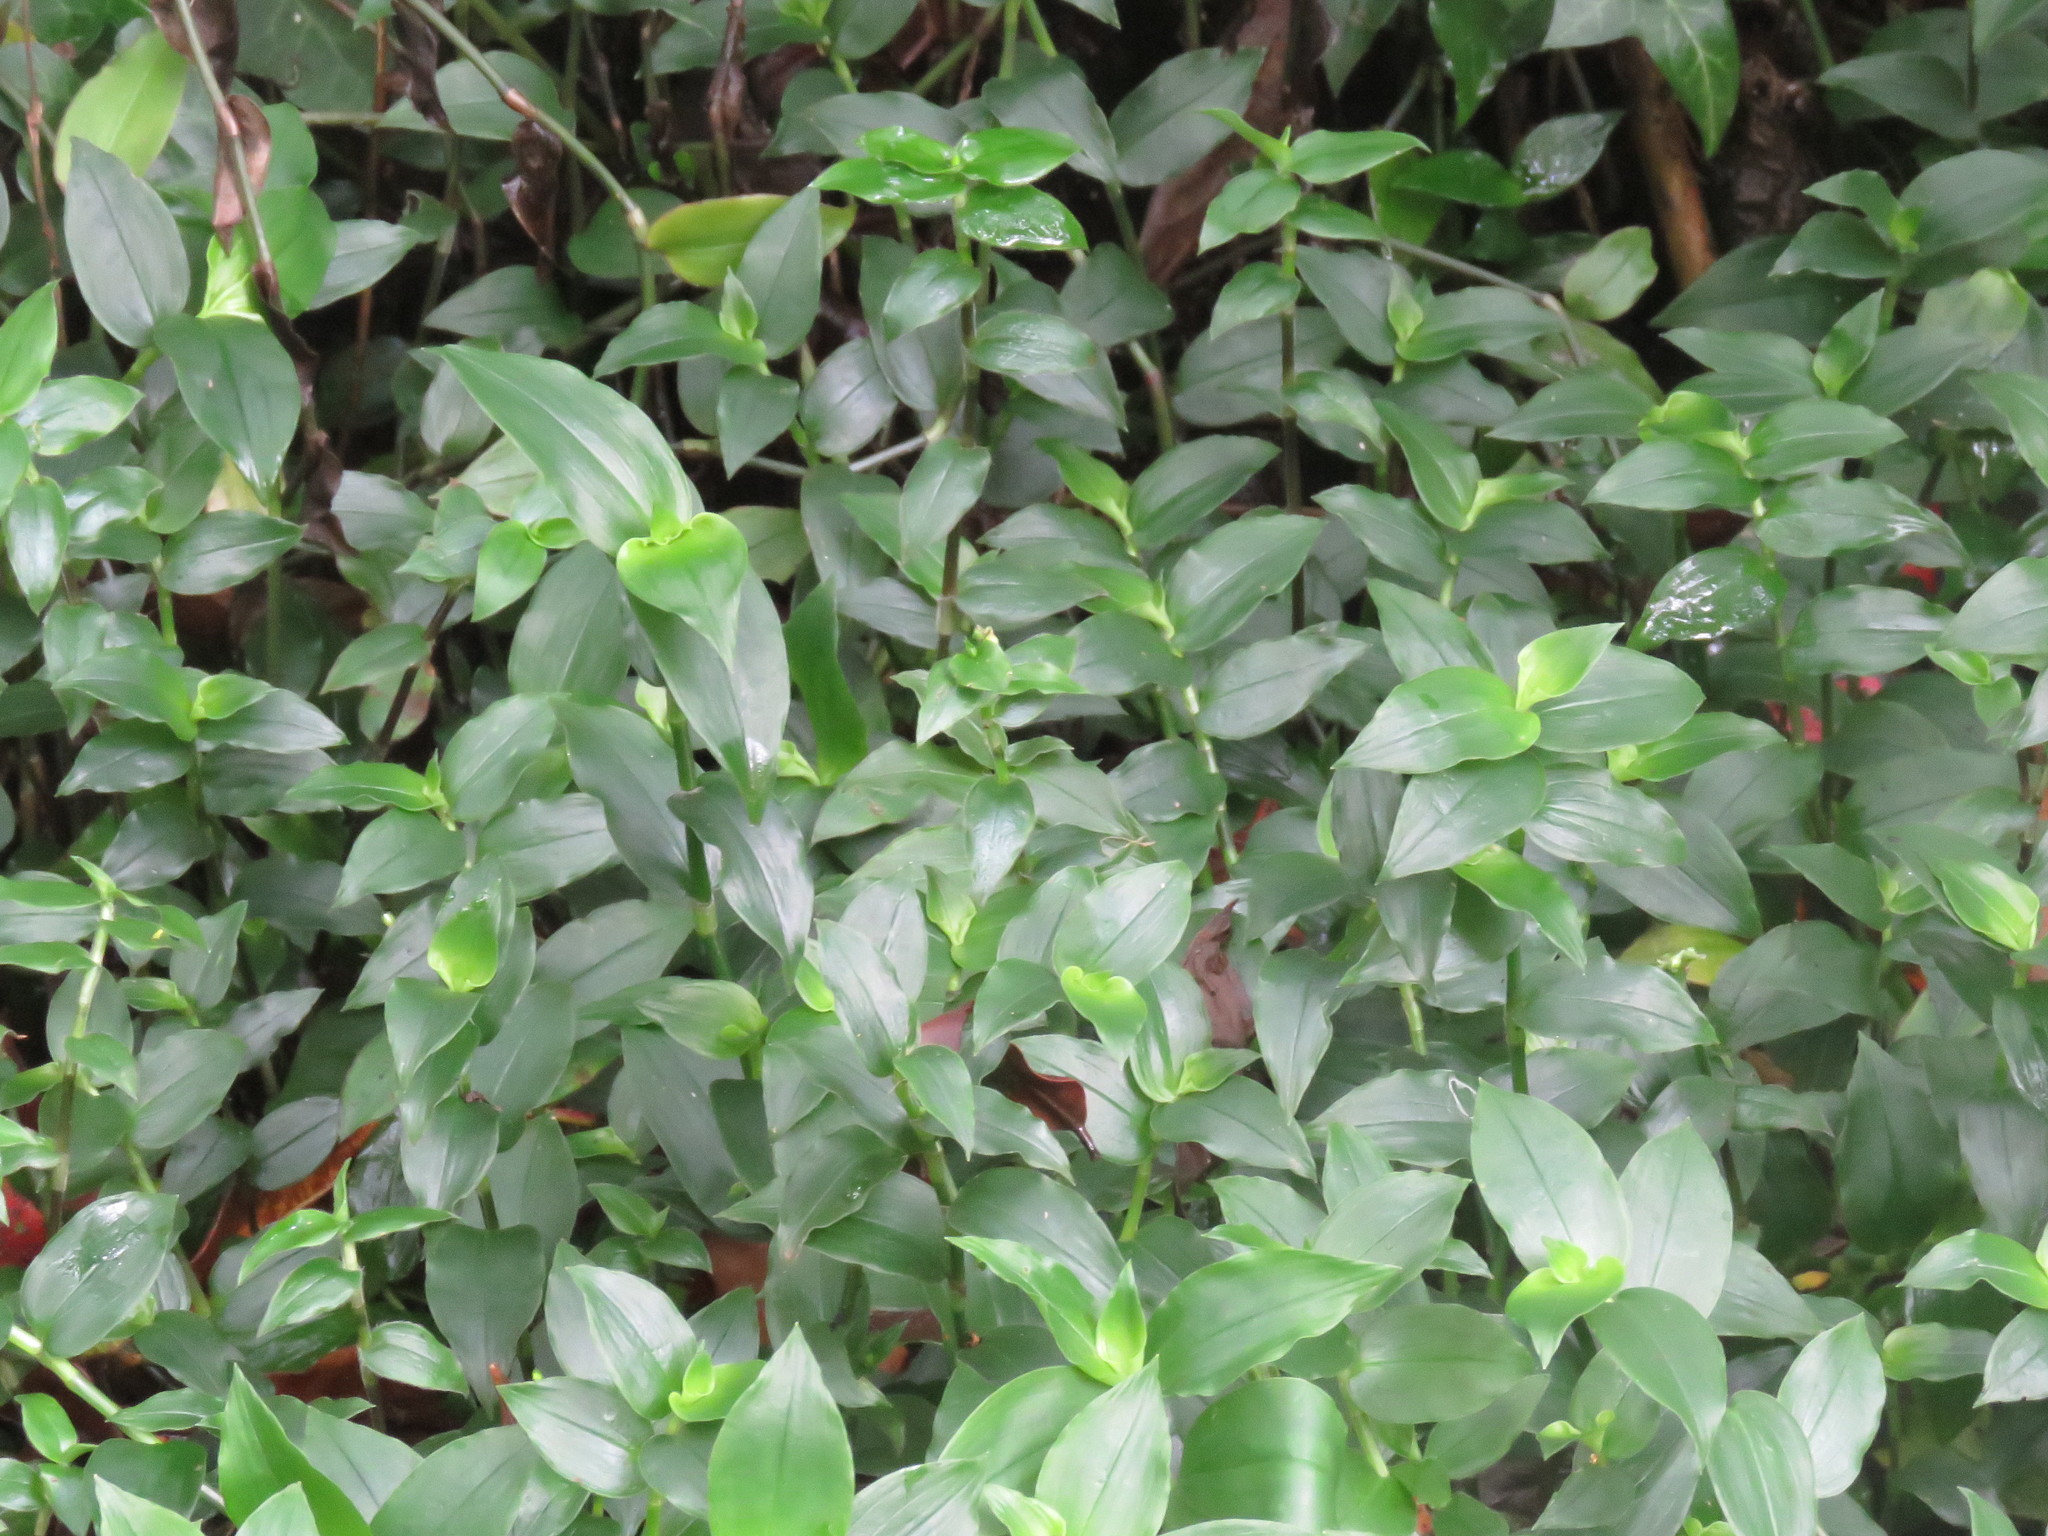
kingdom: Plantae
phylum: Tracheophyta
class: Liliopsida
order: Commelinales
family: Commelinaceae
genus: Tradescantia
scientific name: Tradescantia fluminensis
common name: Wandering-jew
